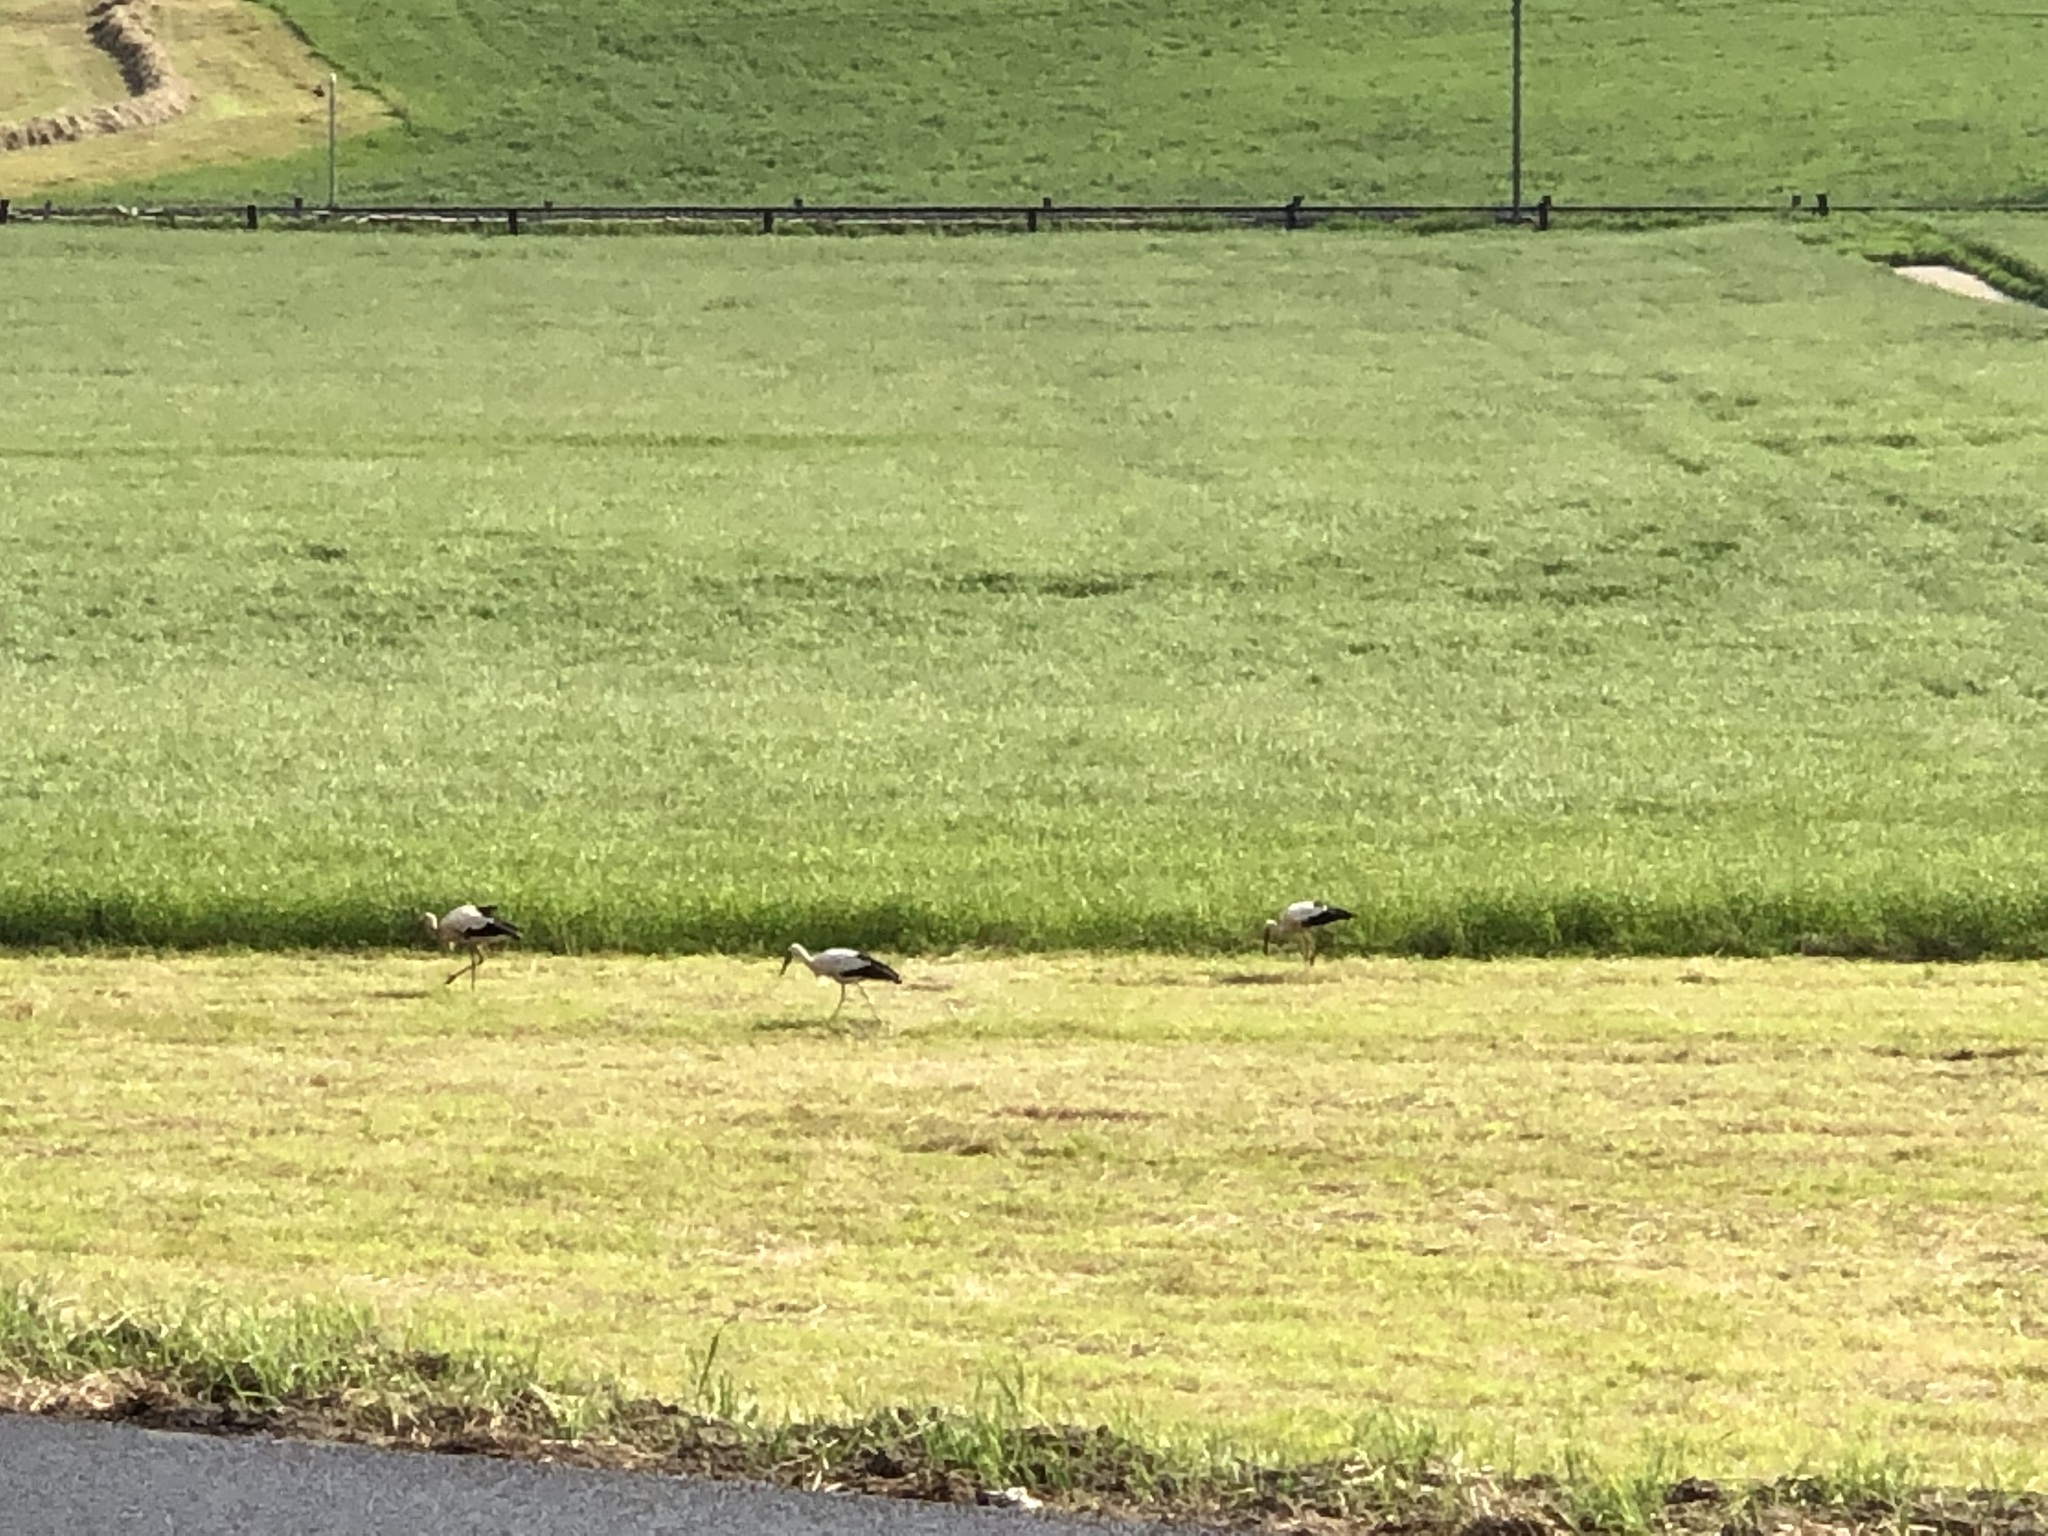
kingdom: Animalia
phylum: Chordata
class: Aves
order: Ciconiiformes
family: Ciconiidae
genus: Ciconia
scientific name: Ciconia ciconia
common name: White stork
